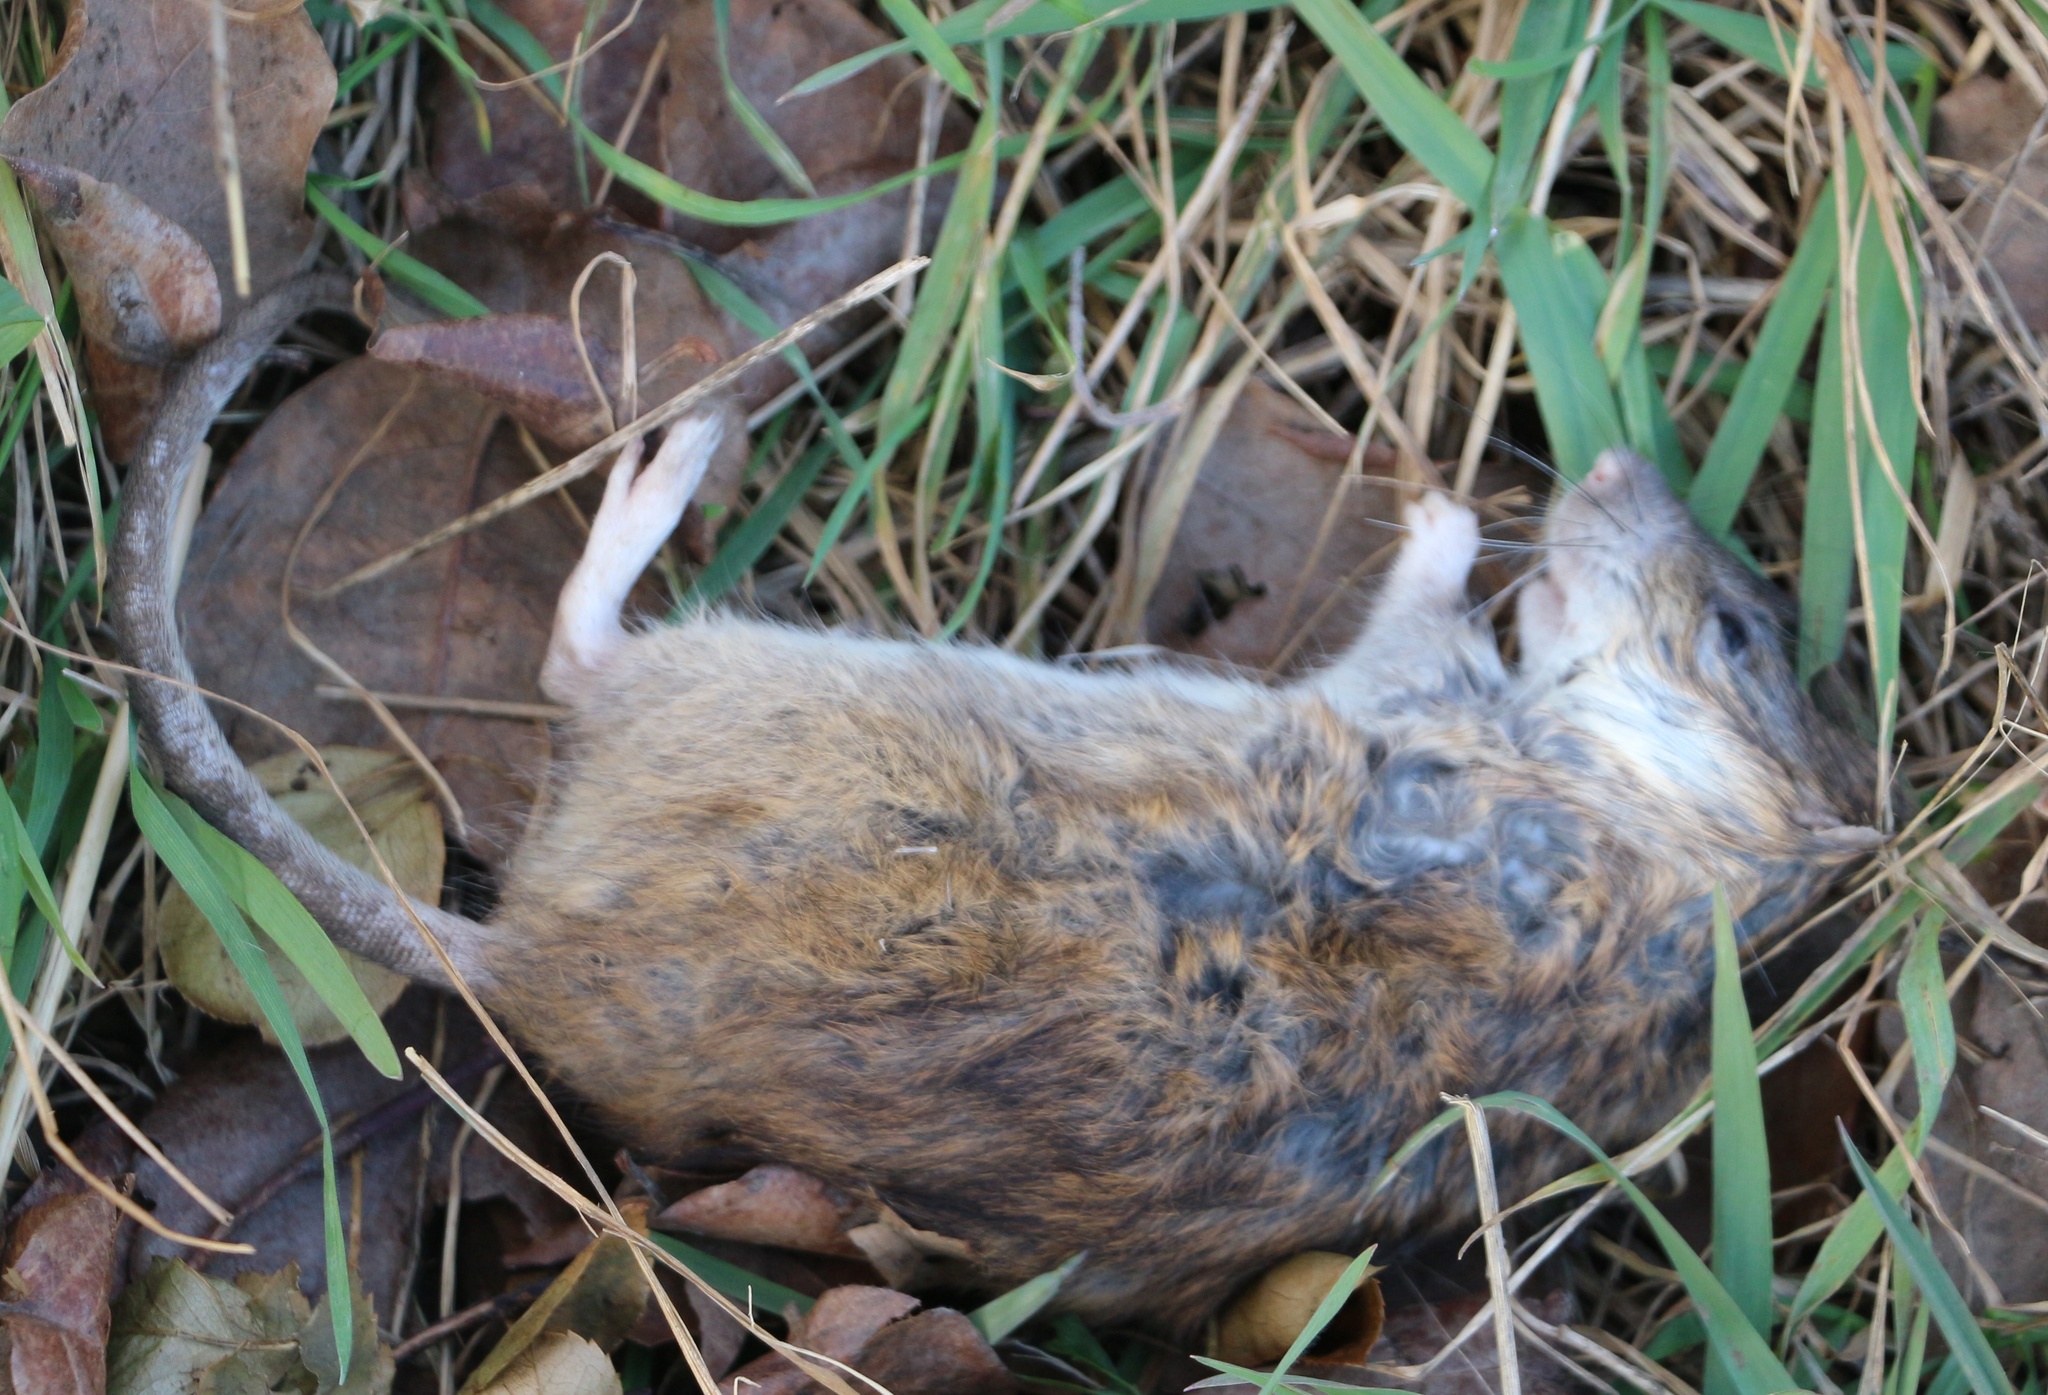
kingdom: Animalia
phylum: Chordata
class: Mammalia
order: Rodentia
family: Muridae
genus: Rattus
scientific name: Rattus norvegicus
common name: Brown rat
